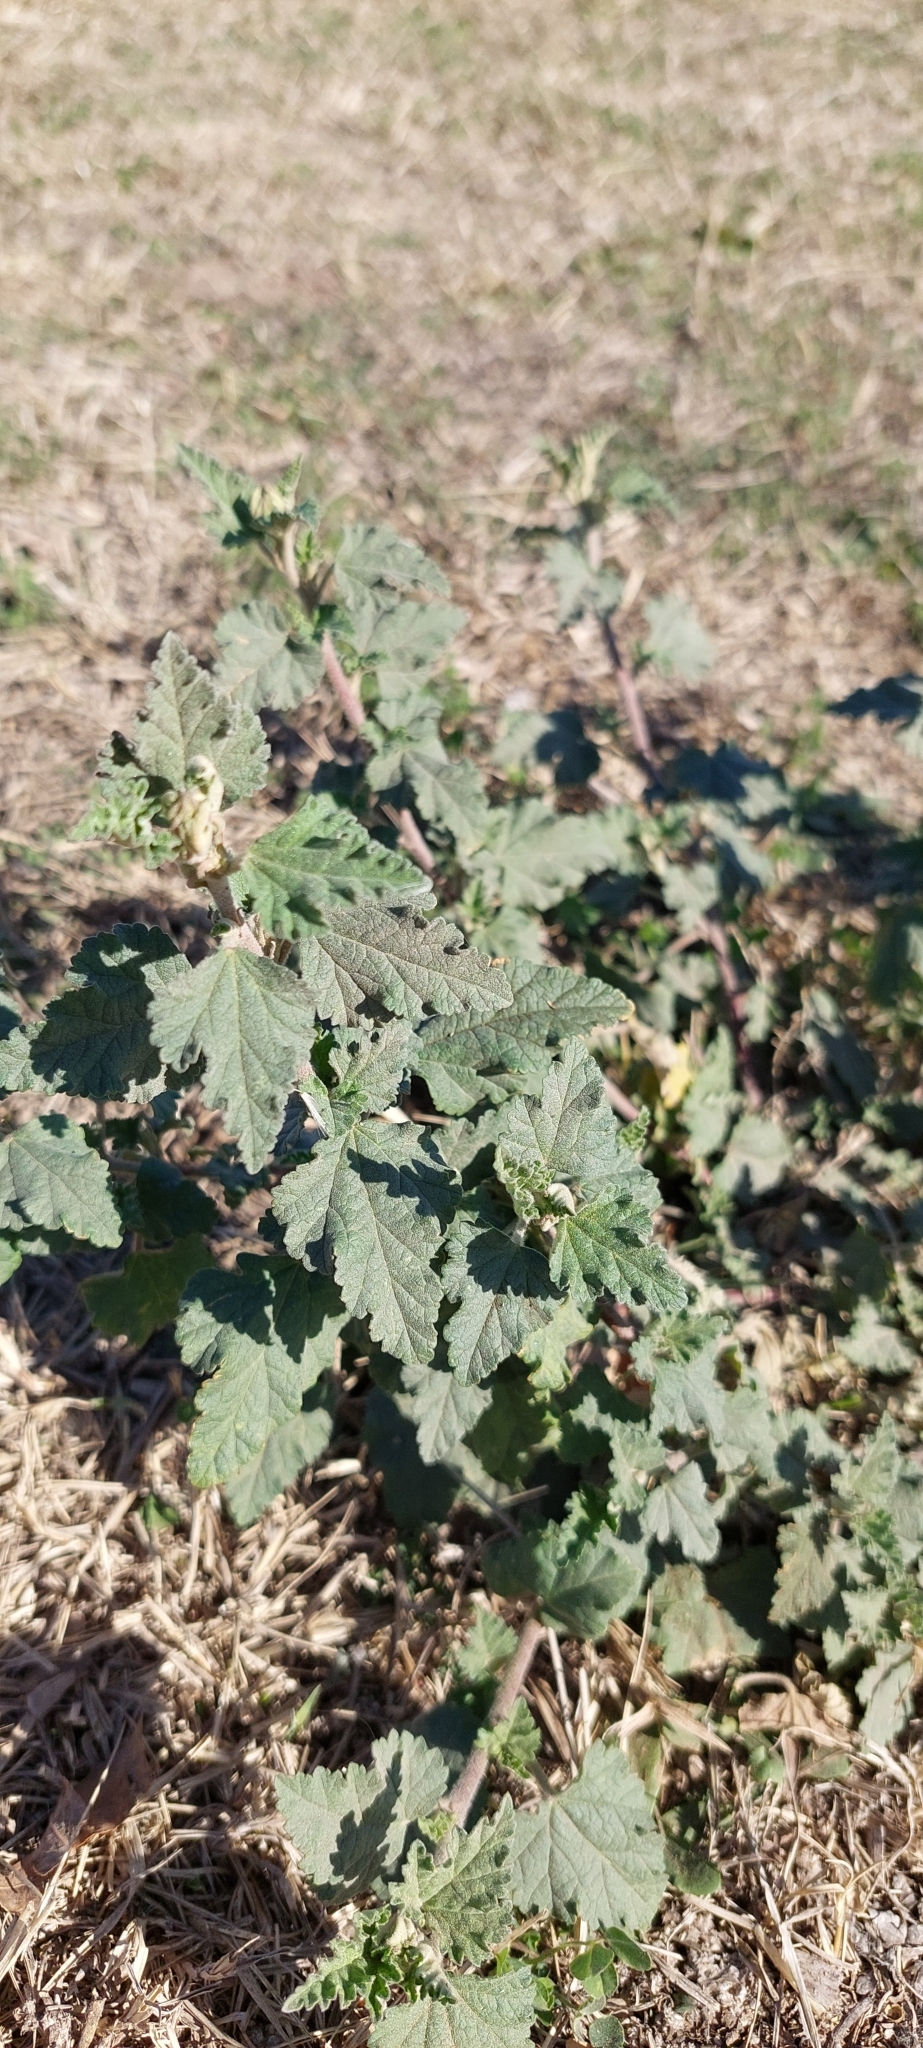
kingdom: Plantae
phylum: Tracheophyta
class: Magnoliopsida
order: Malvales
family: Malvaceae
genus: Sphaeralcea
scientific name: Sphaeralcea bonariensis
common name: Latin globemallow
